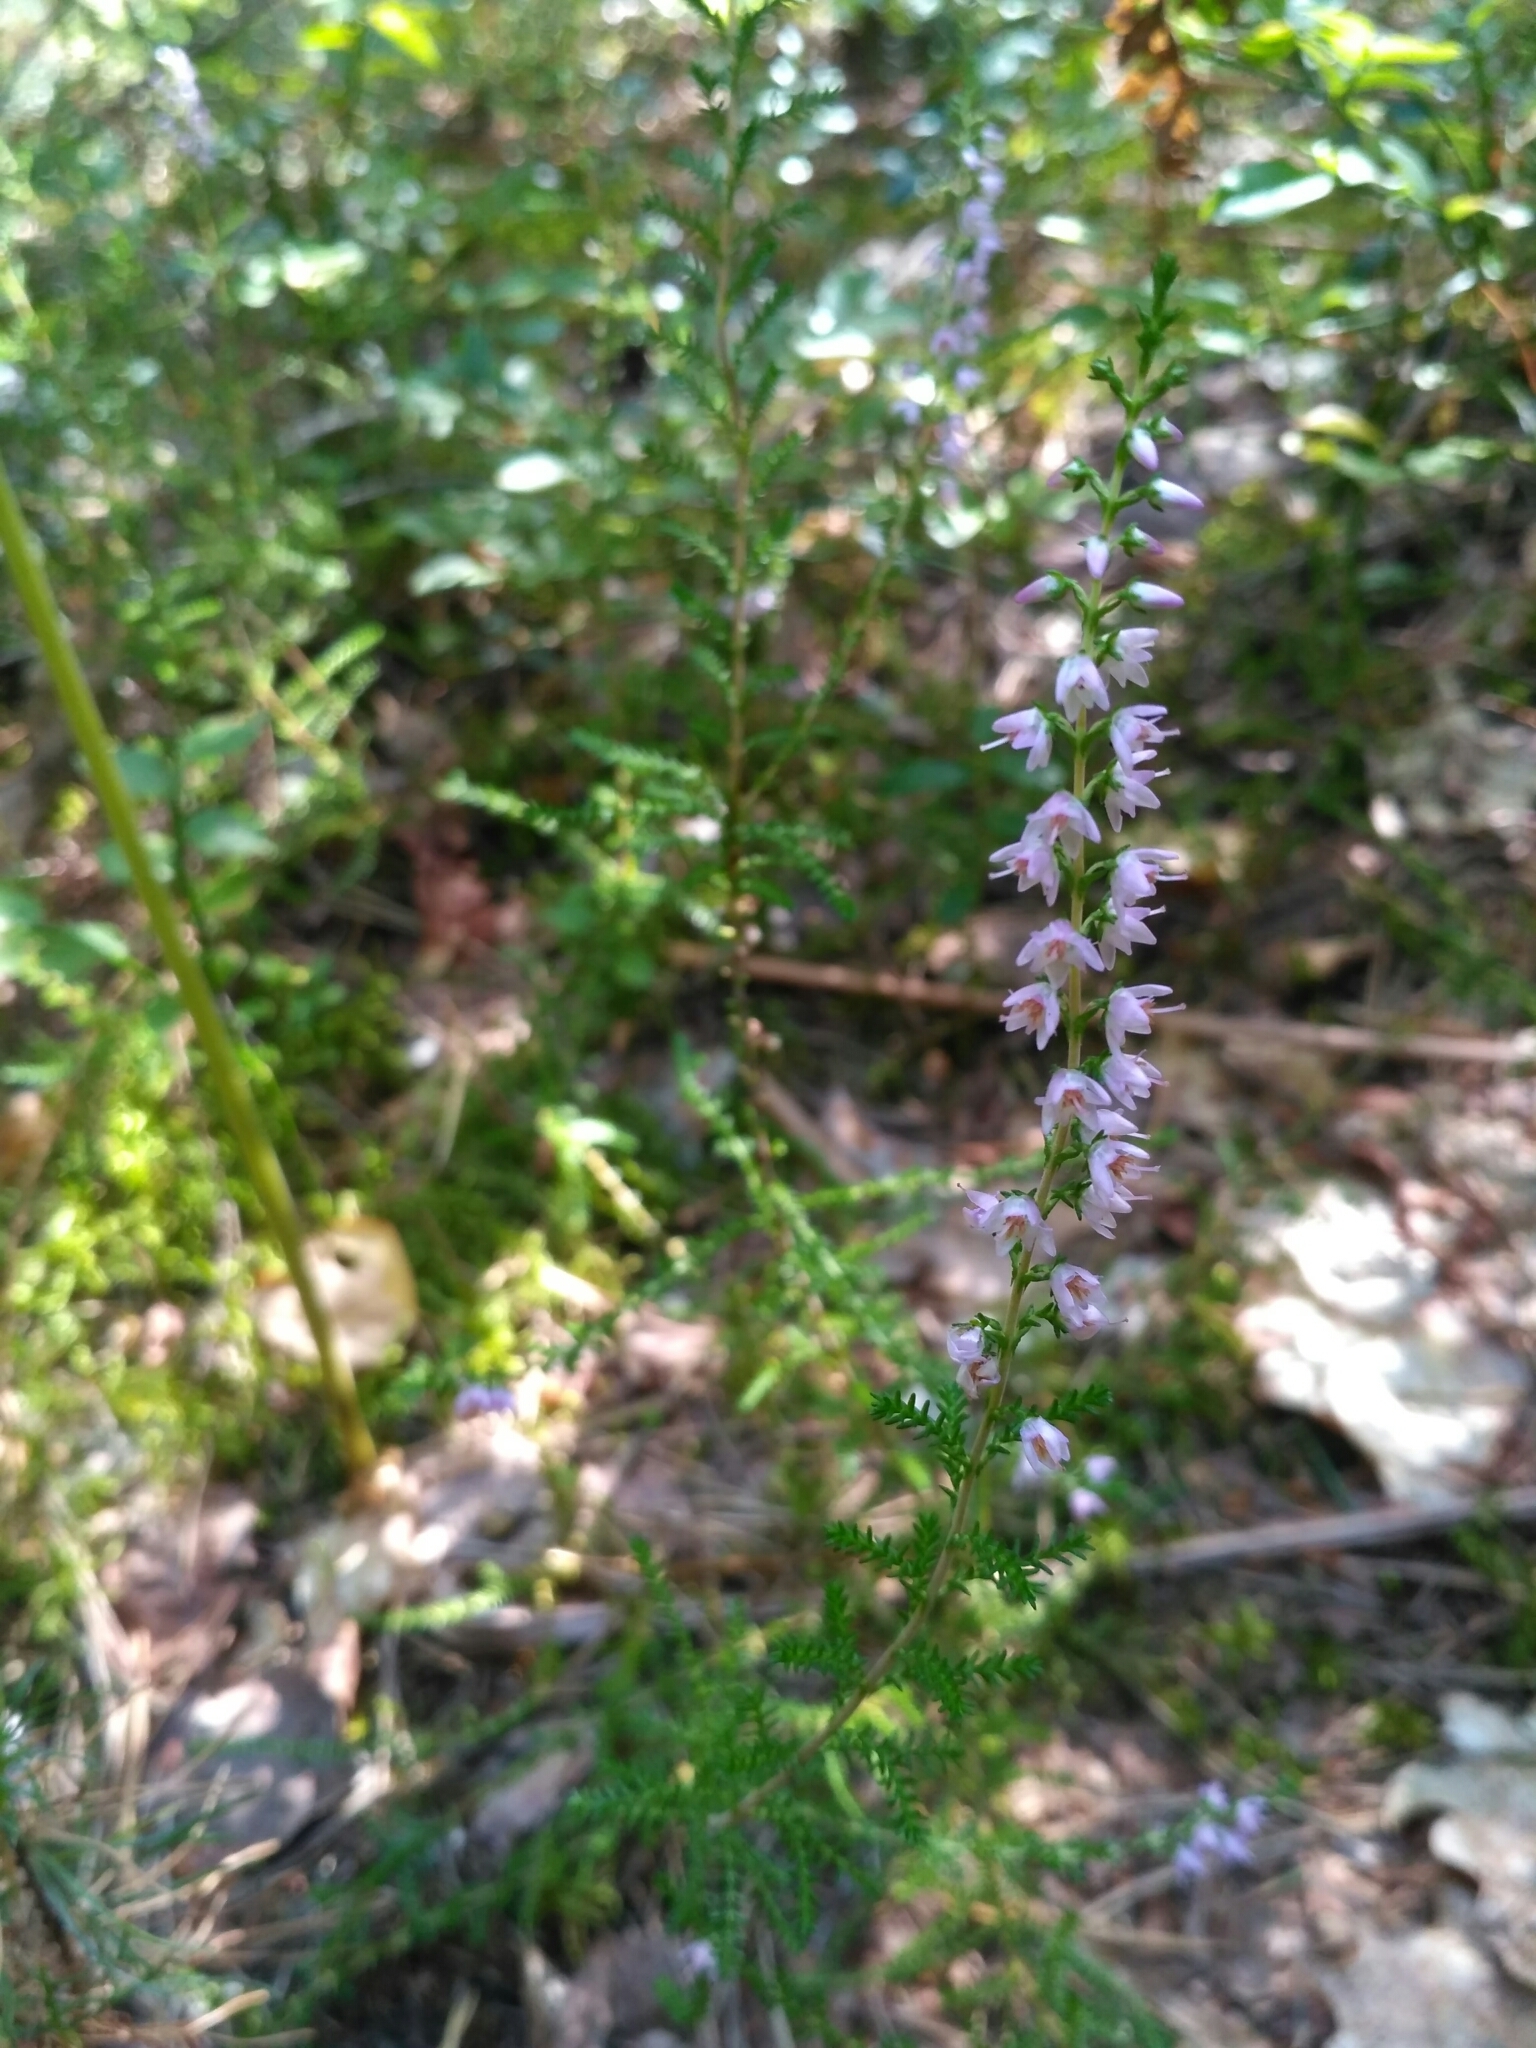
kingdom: Plantae
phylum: Tracheophyta
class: Magnoliopsida
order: Ericales
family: Ericaceae
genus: Calluna
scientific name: Calluna vulgaris
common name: Heather
